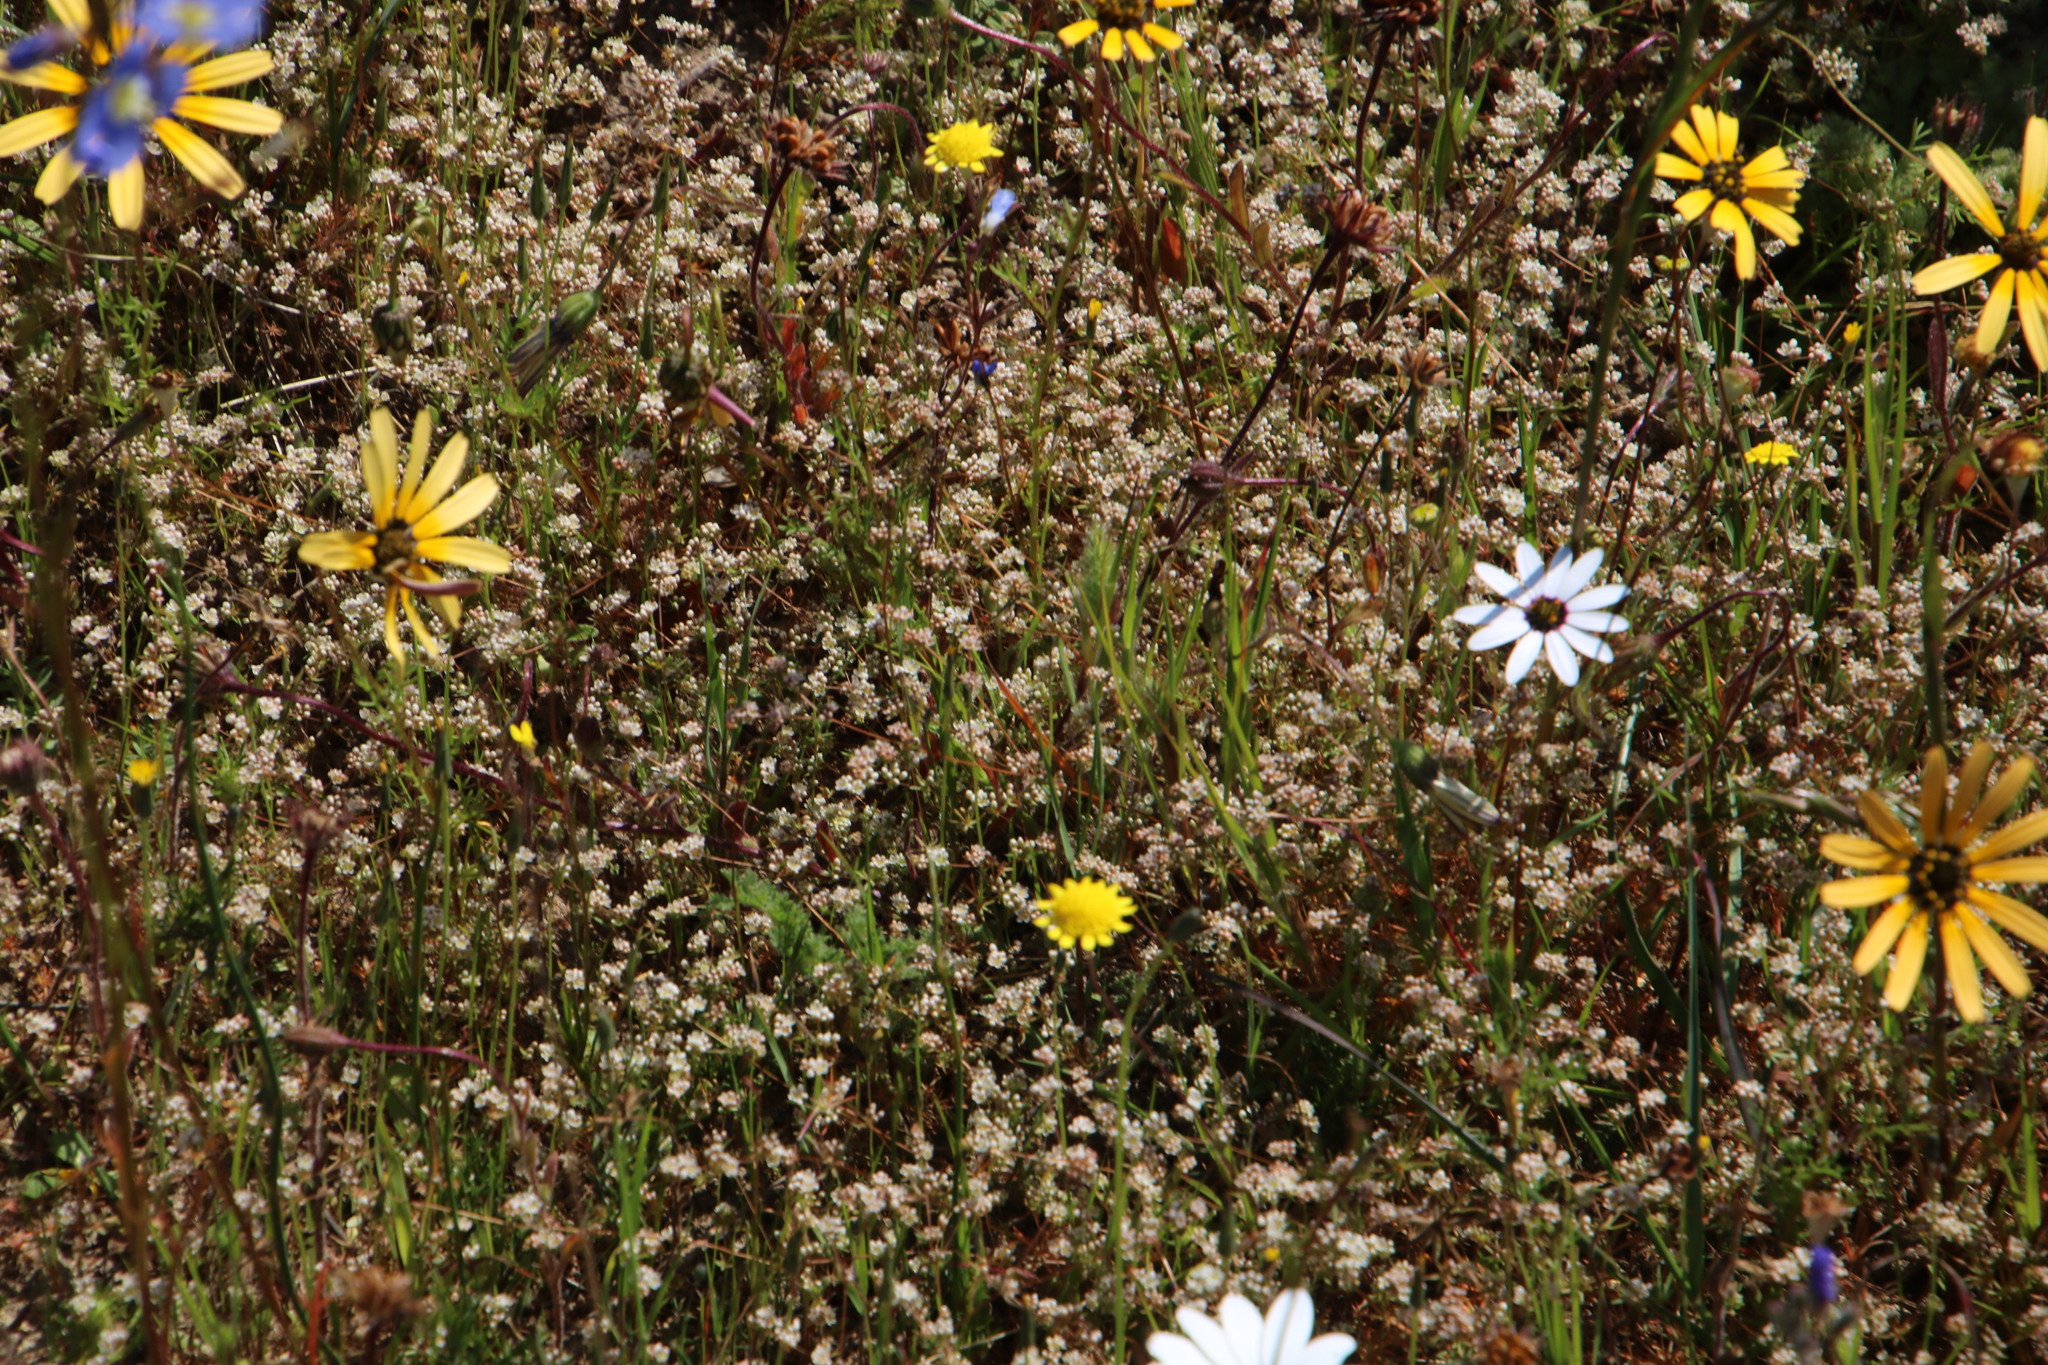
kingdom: Plantae
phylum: Tracheophyta
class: Magnoliopsida
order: Caryophyllales
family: Molluginaceae
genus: Adenogramma
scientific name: Adenogramma glomerata
